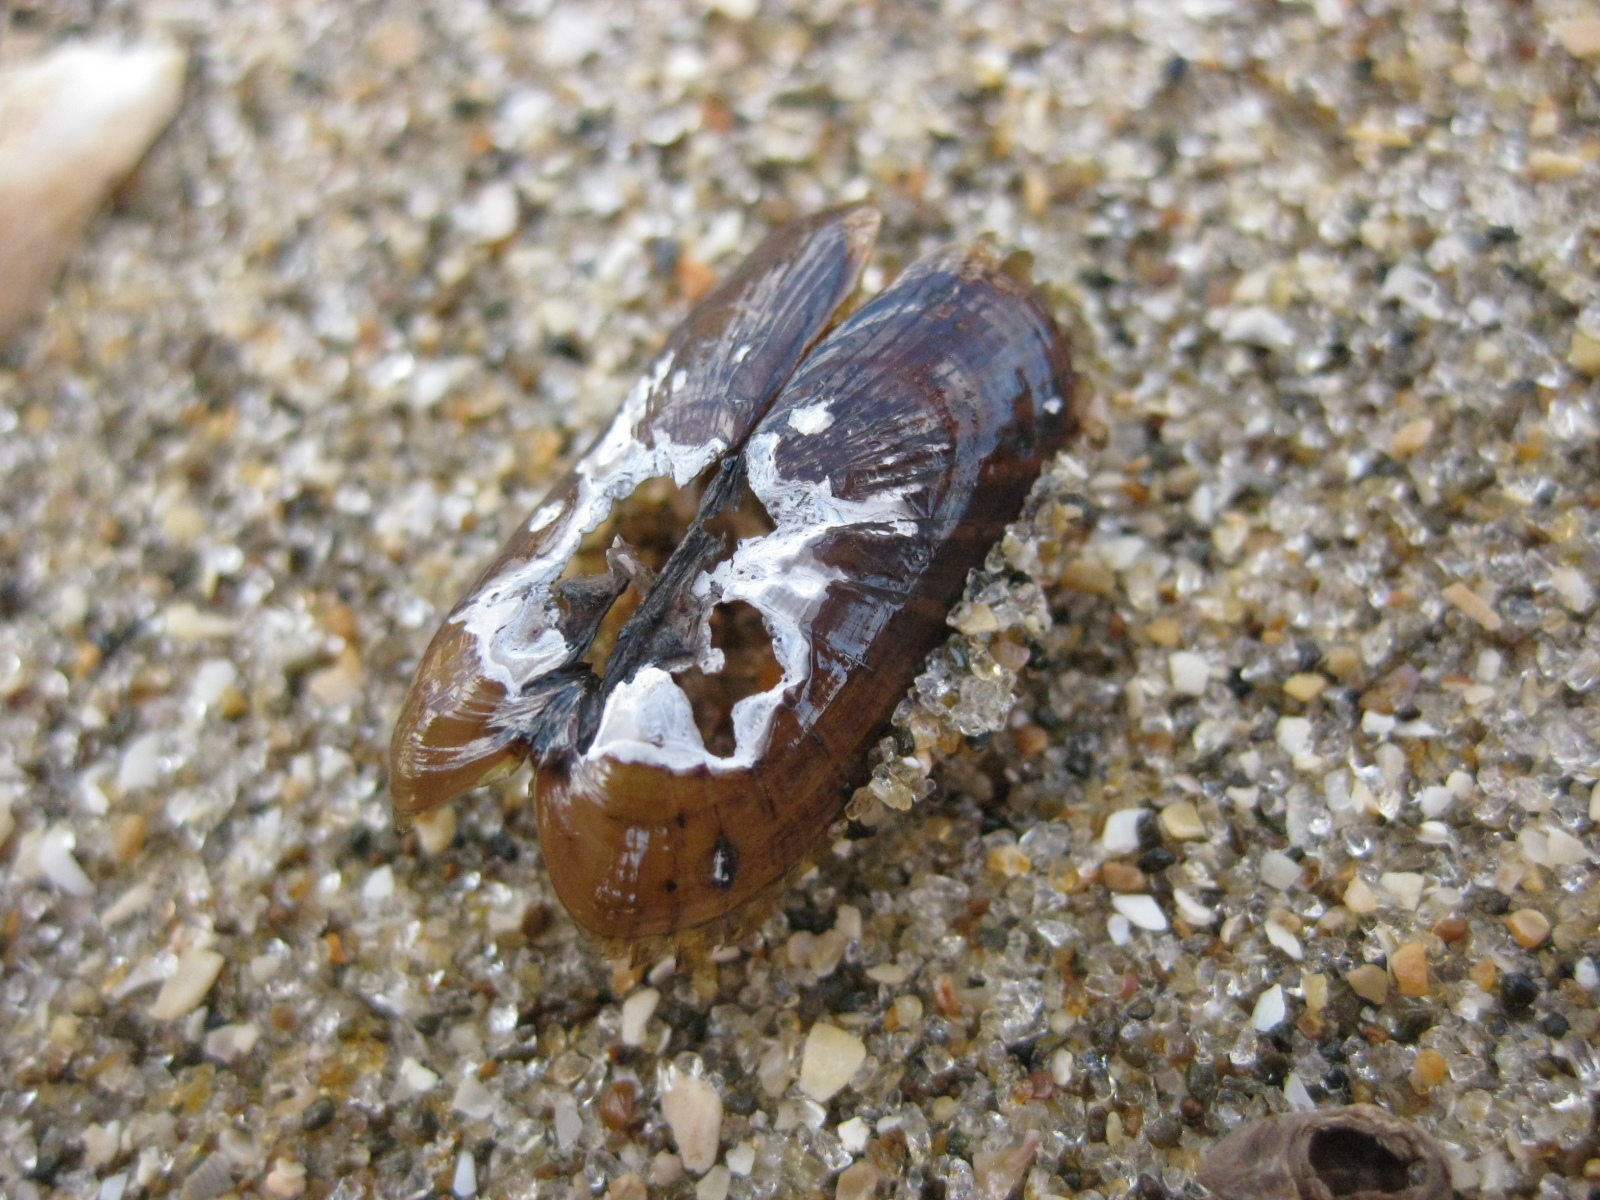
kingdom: Animalia
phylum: Mollusca
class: Bivalvia
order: Solemyida
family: Solemyidae
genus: Solemya
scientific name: Solemya parkinsonii
